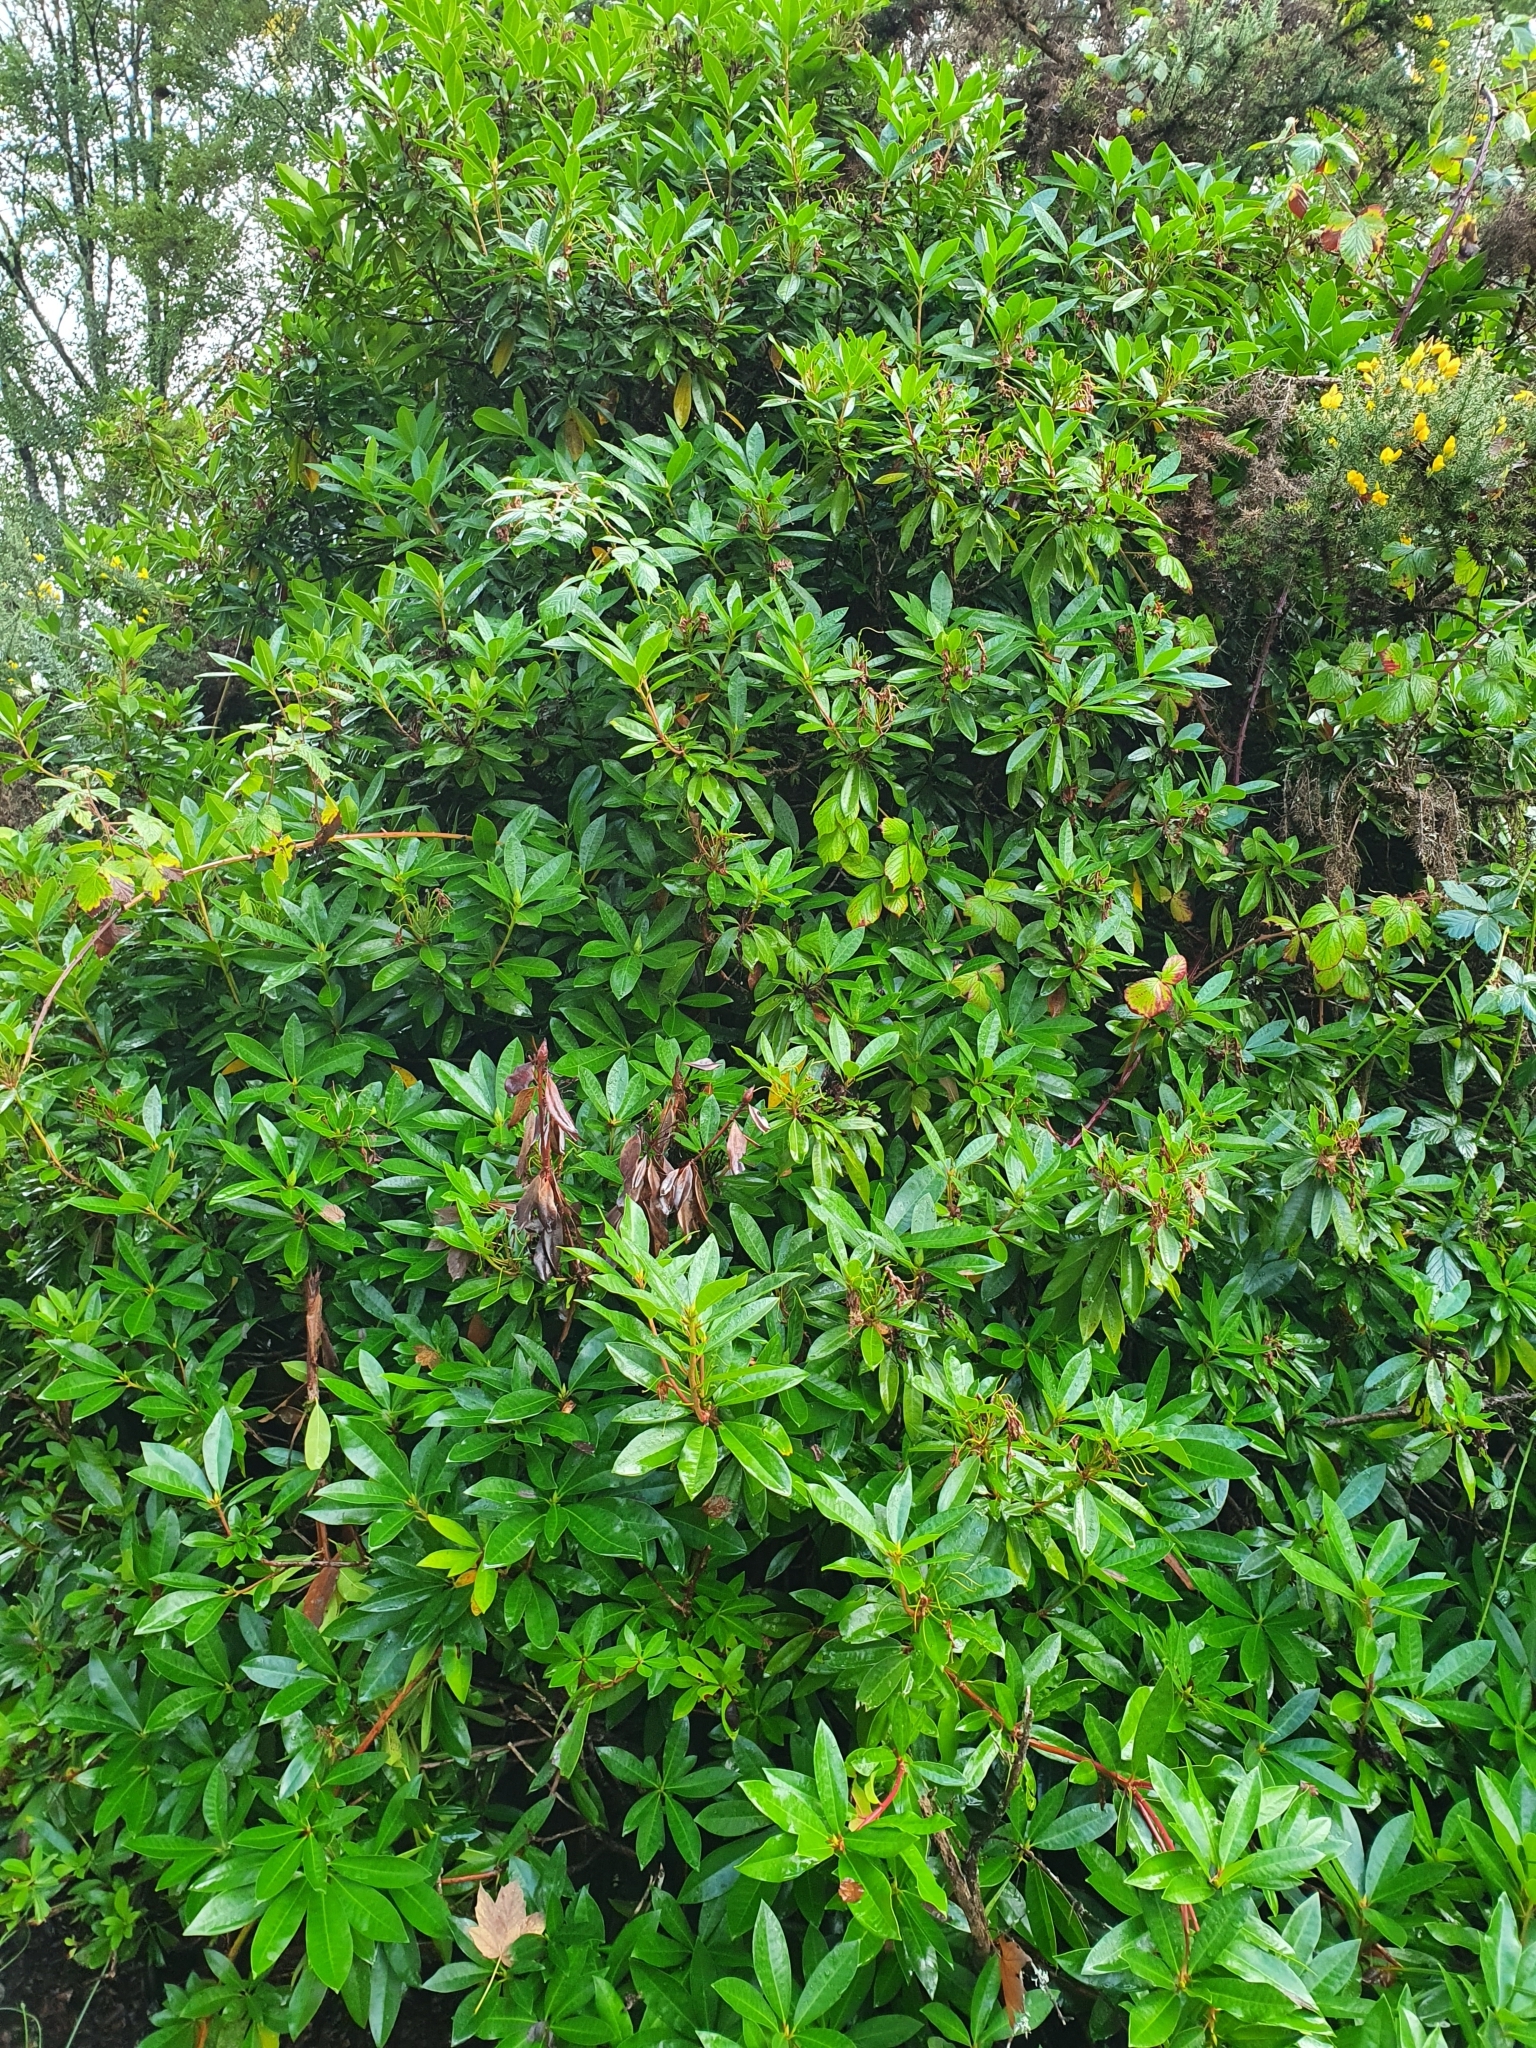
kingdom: Plantae
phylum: Tracheophyta
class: Magnoliopsida
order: Ericales
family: Ericaceae
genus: Rhododendron
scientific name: Rhododendron ponticum
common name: Rhododendron
